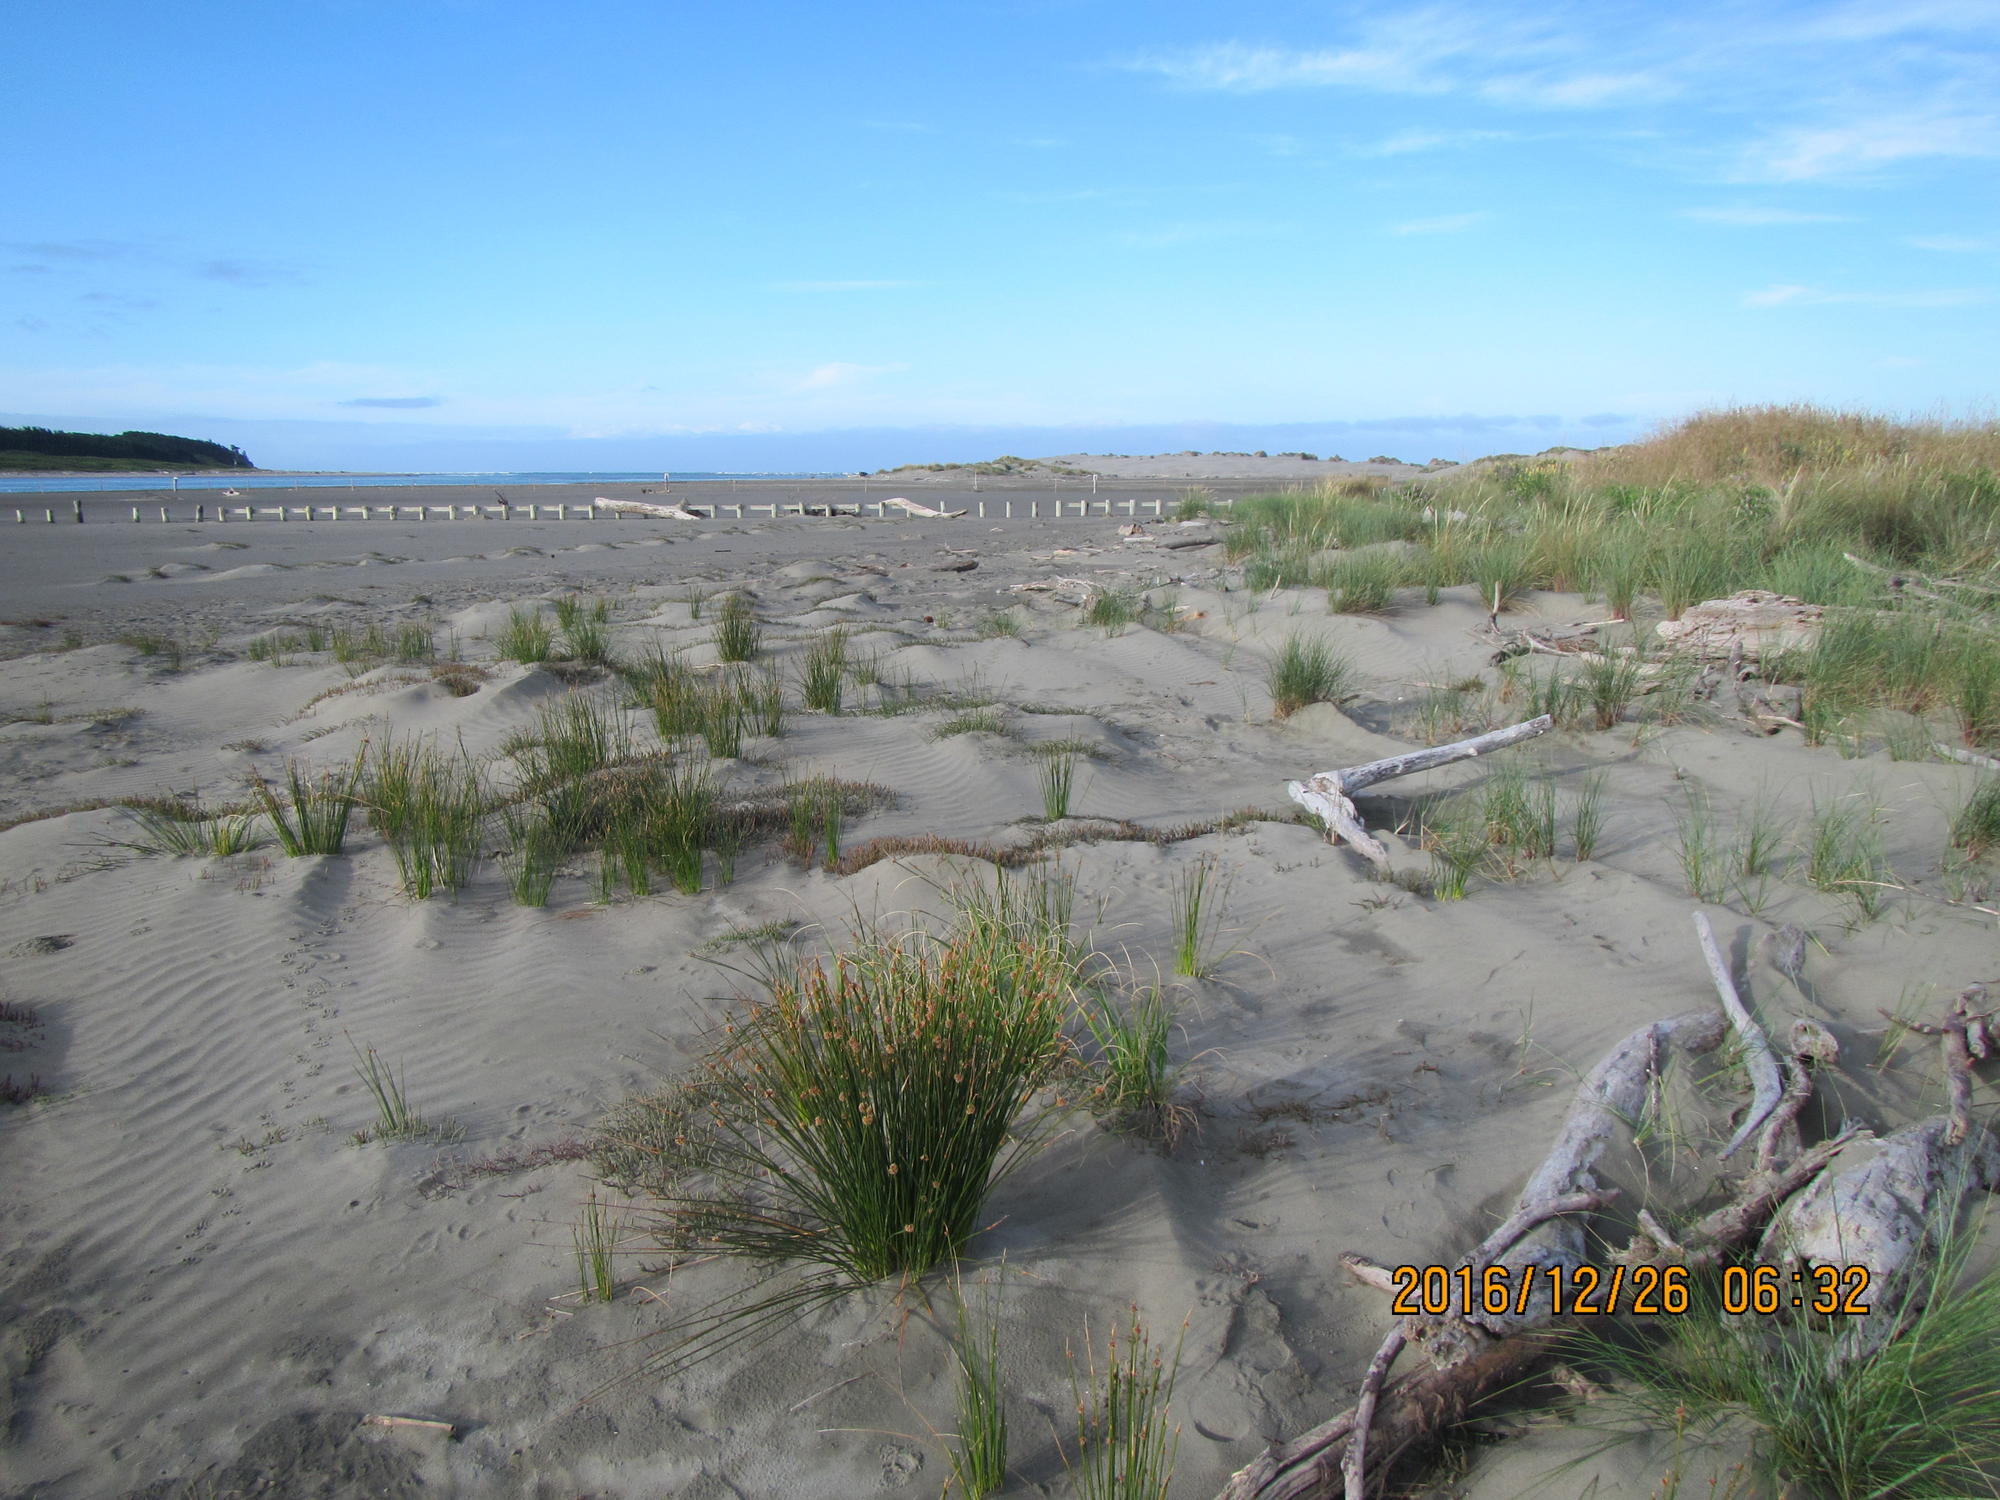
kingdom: Plantae
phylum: Tracheophyta
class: Liliopsida
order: Poales
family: Cyperaceae
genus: Ficinia
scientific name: Ficinia nodosa
